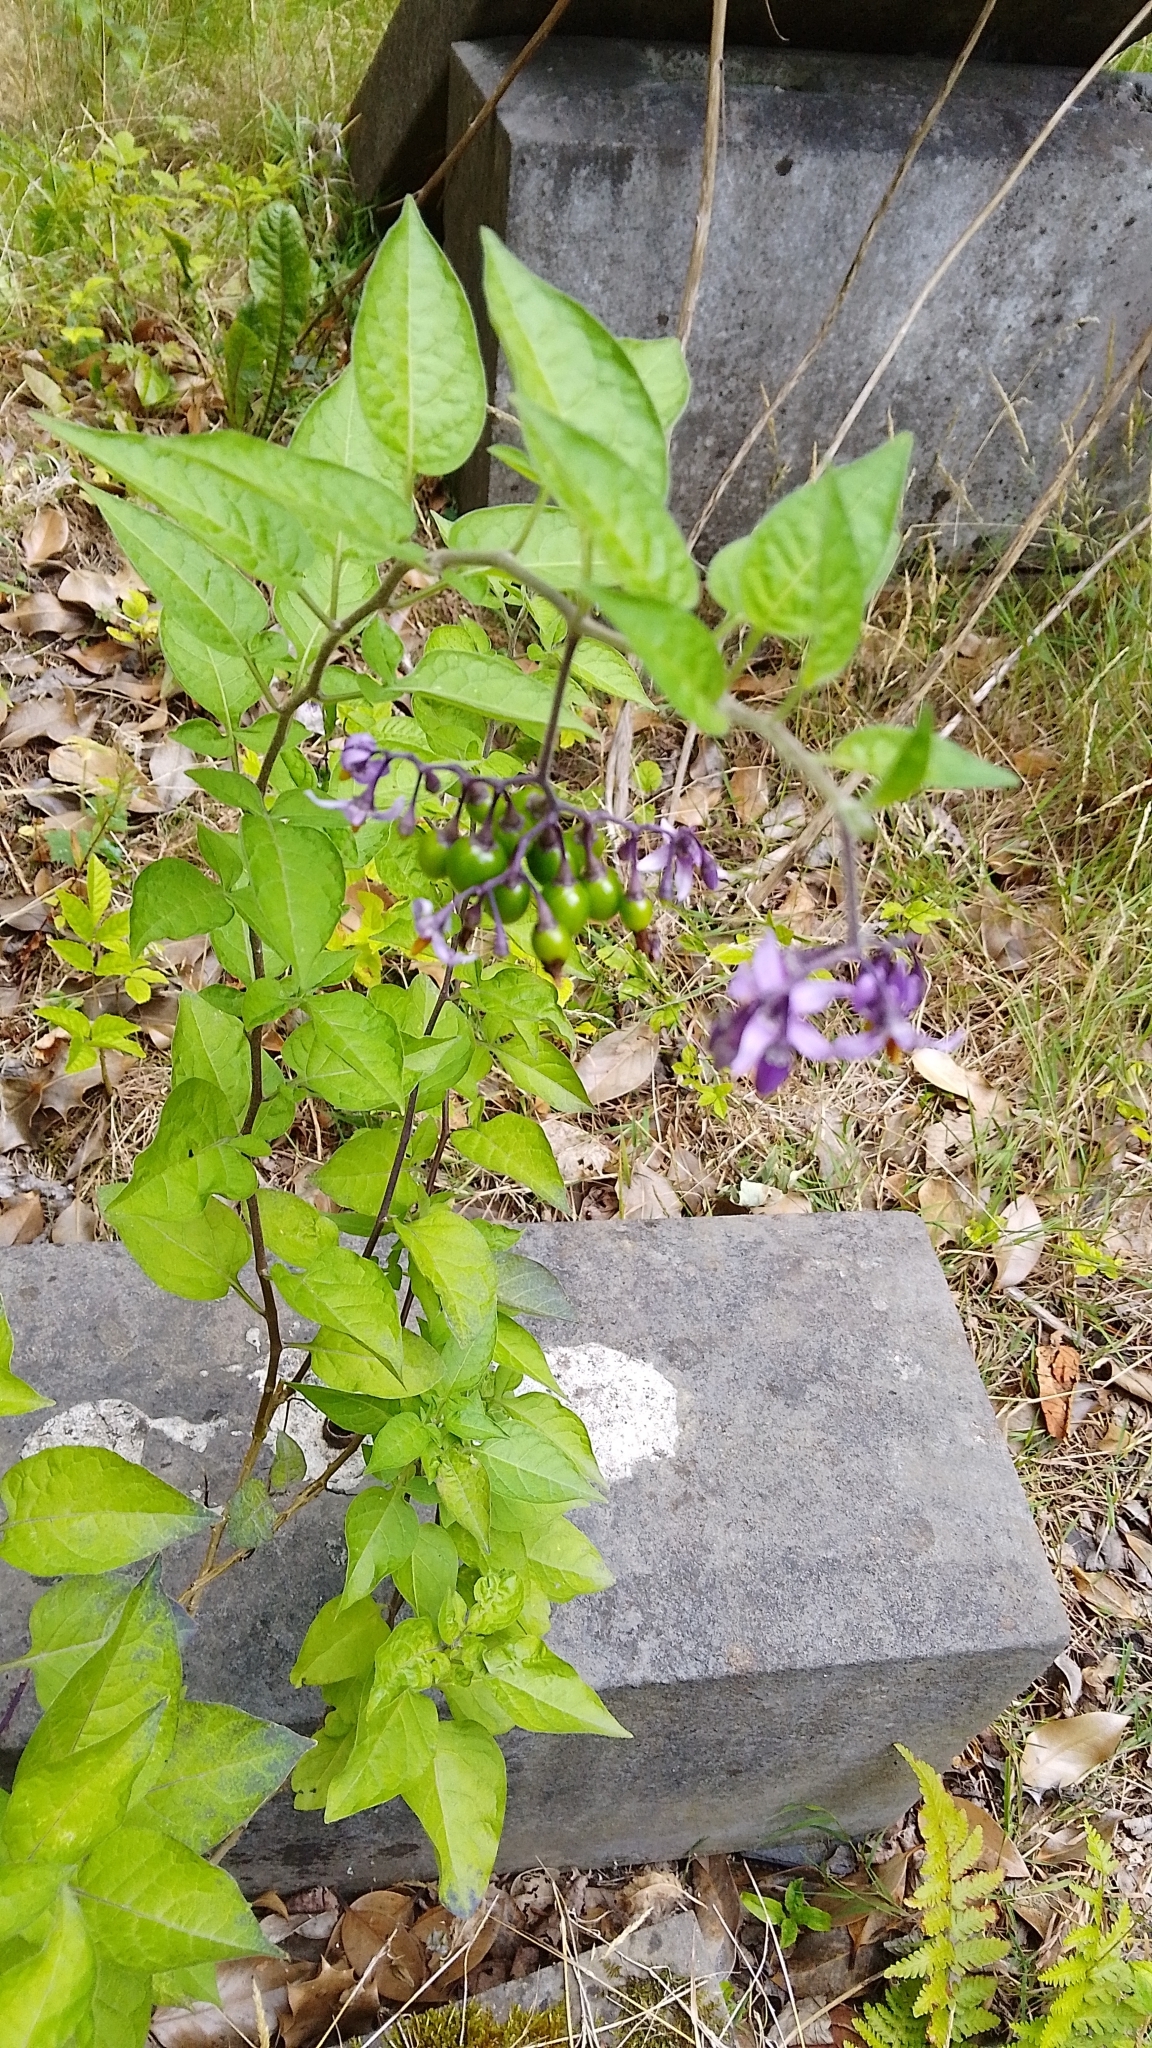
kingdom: Plantae
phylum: Tracheophyta
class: Magnoliopsida
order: Solanales
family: Solanaceae
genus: Solanum
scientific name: Solanum dulcamara
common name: Climbing nightshade
